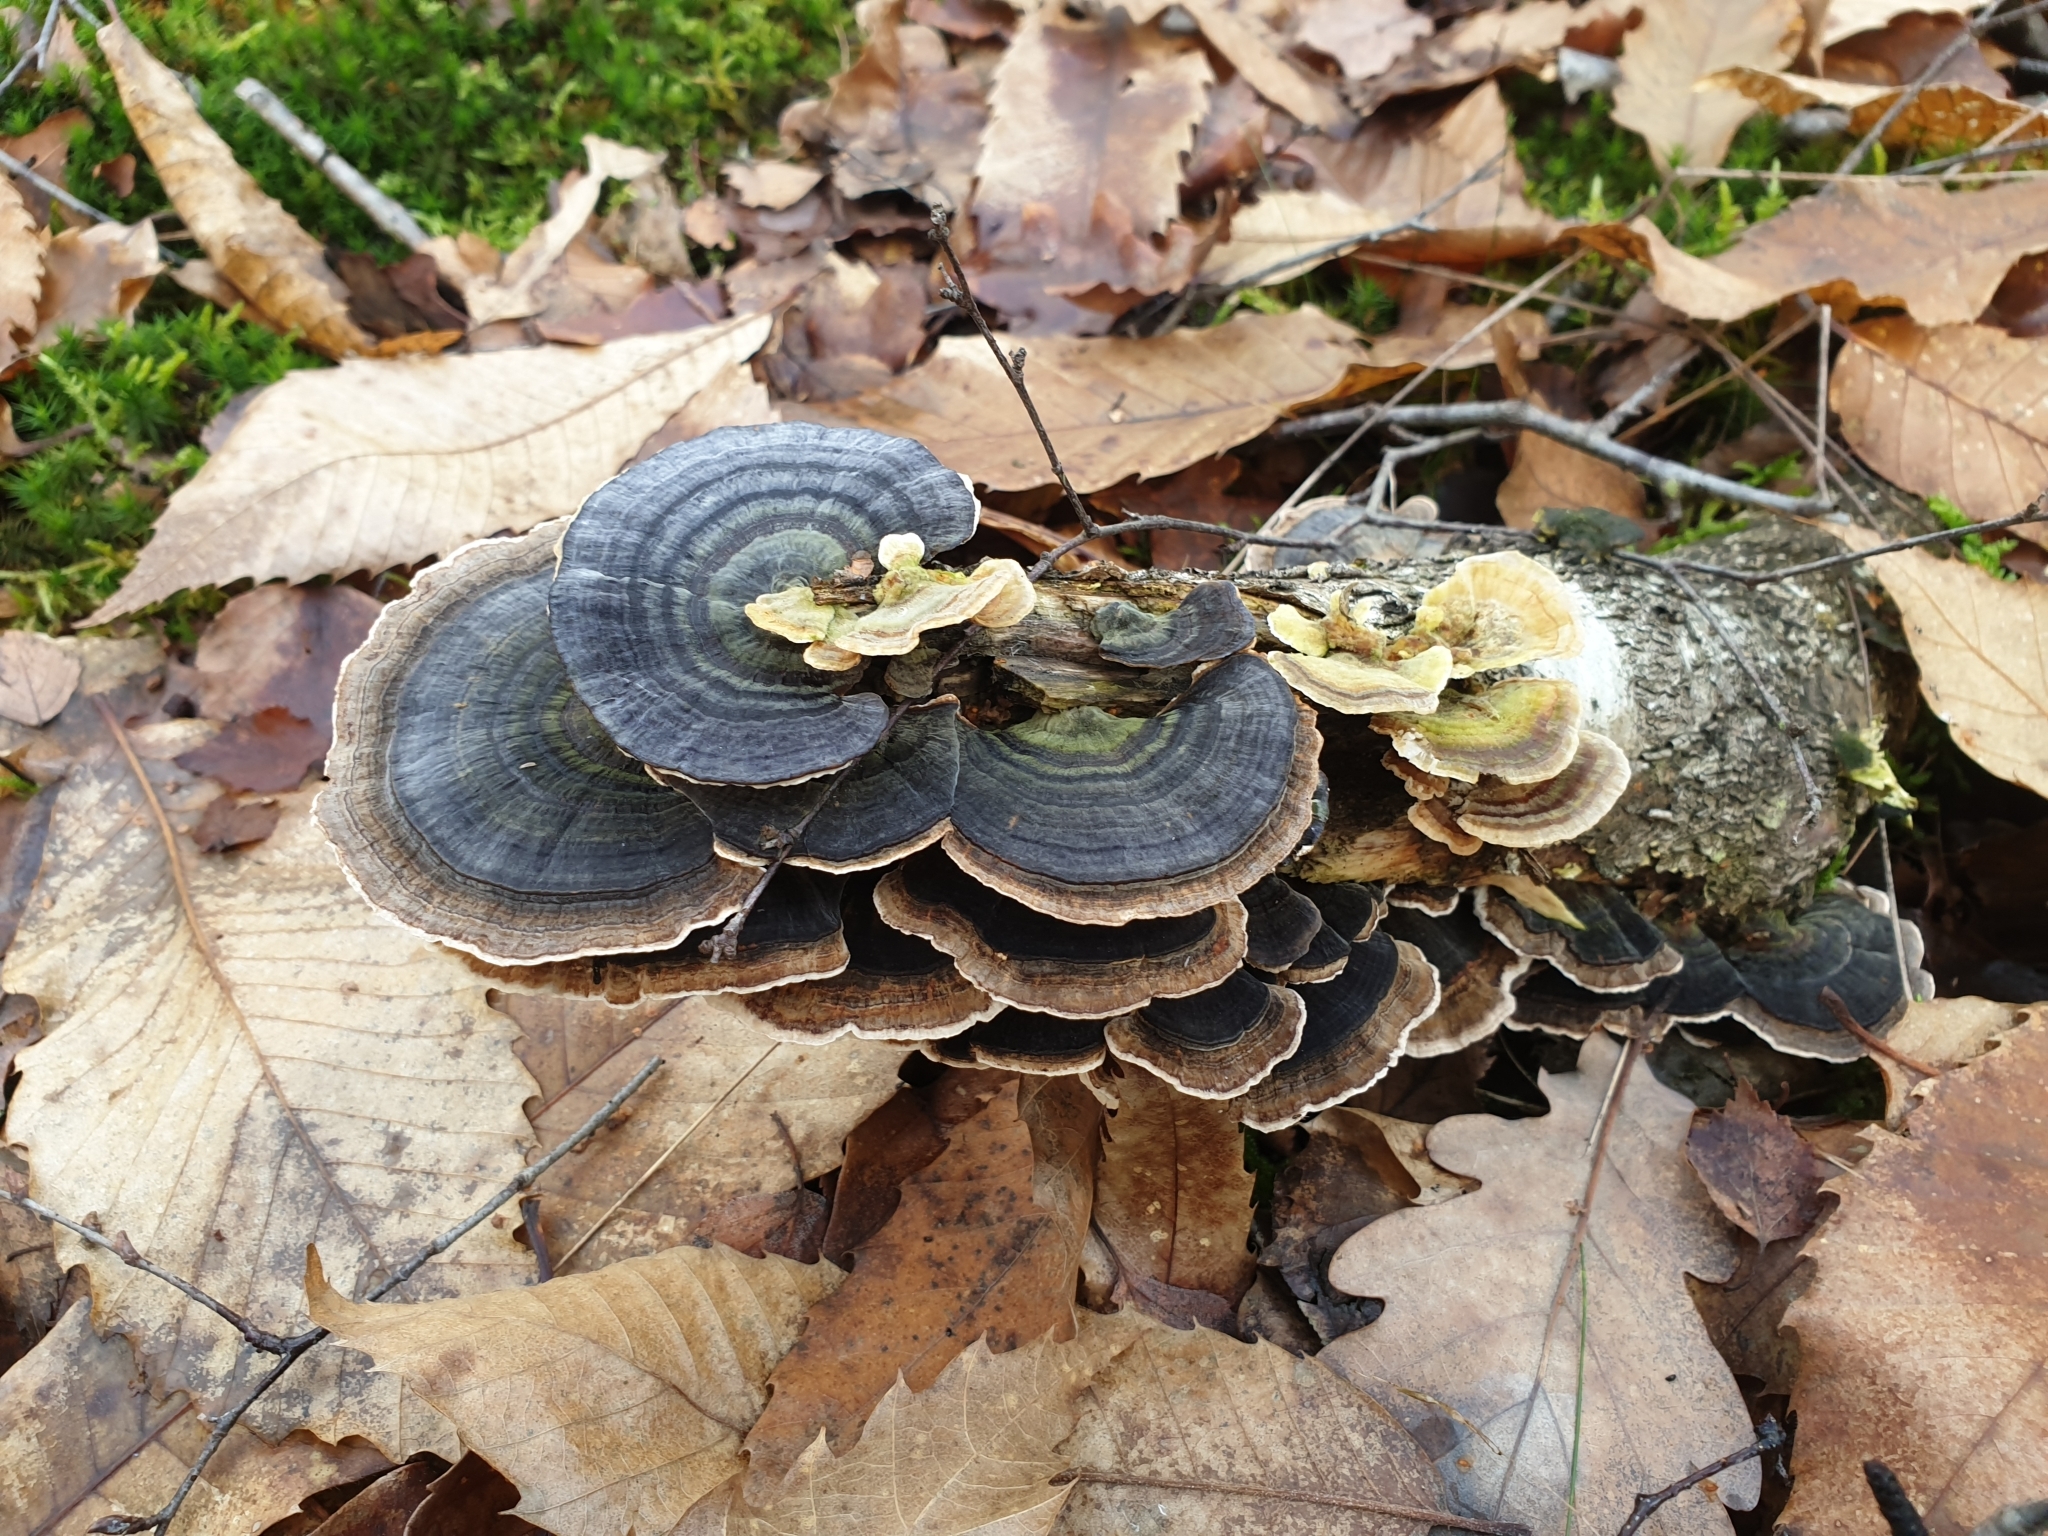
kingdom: Fungi
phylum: Basidiomycota
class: Agaricomycetes
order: Polyporales
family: Polyporaceae
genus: Trametes
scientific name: Trametes versicolor
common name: Turkeytail
